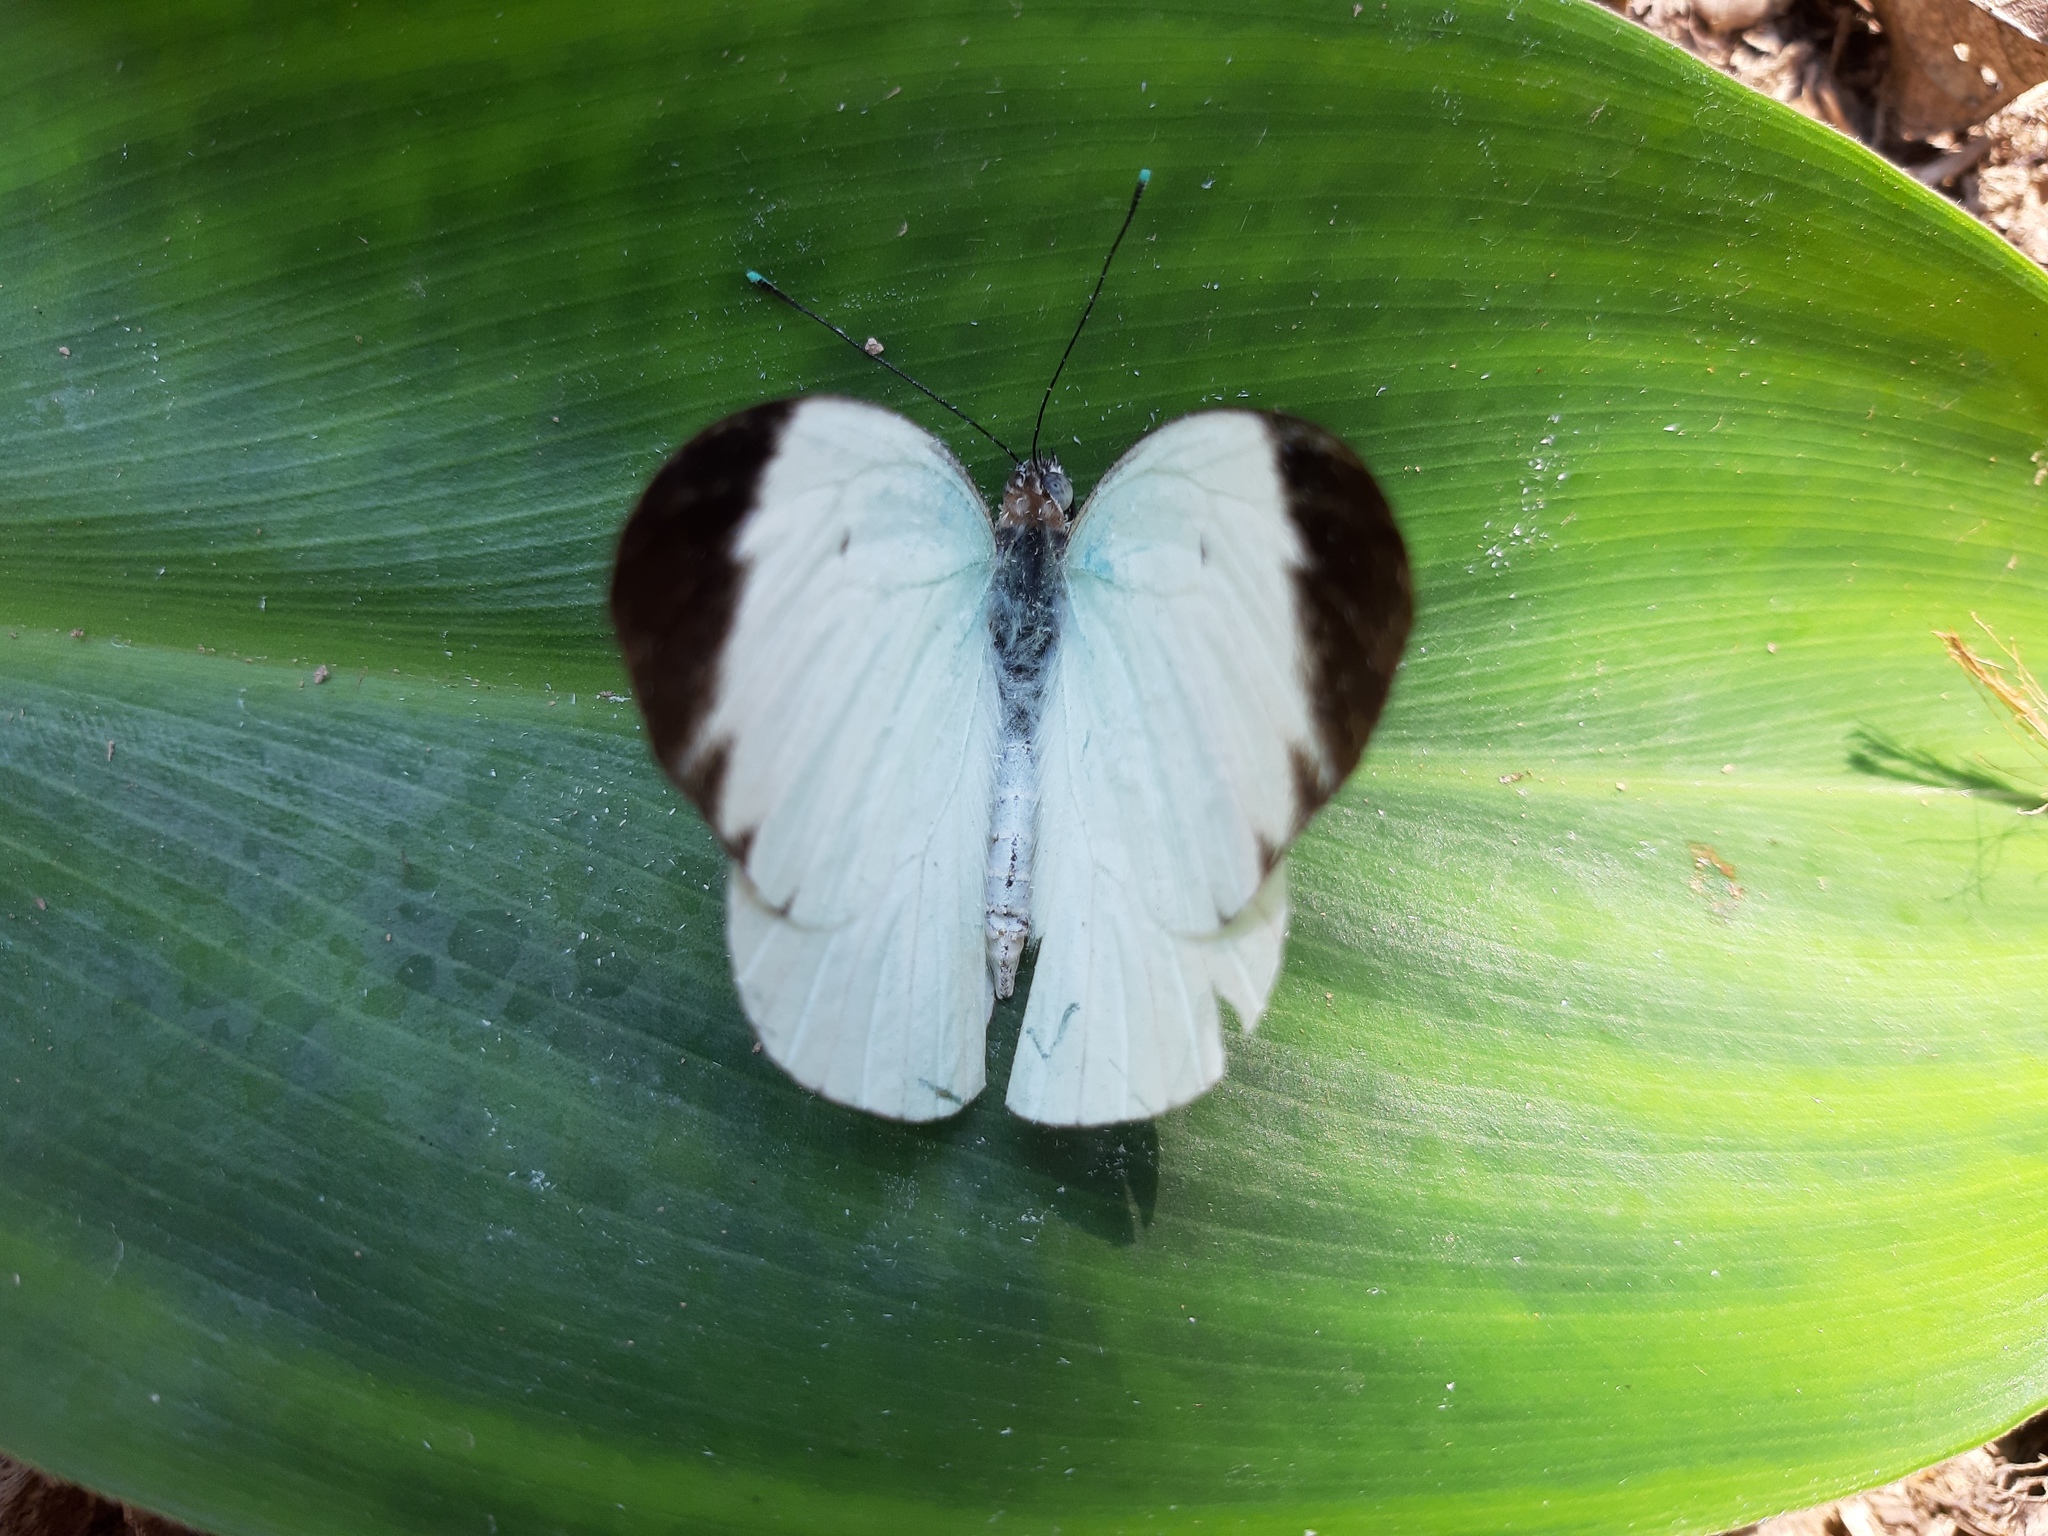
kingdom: Animalia
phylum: Arthropoda
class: Insecta
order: Lepidoptera
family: Pieridae
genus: Ganyra
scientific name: Ganyra phaloe
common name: Giant white
